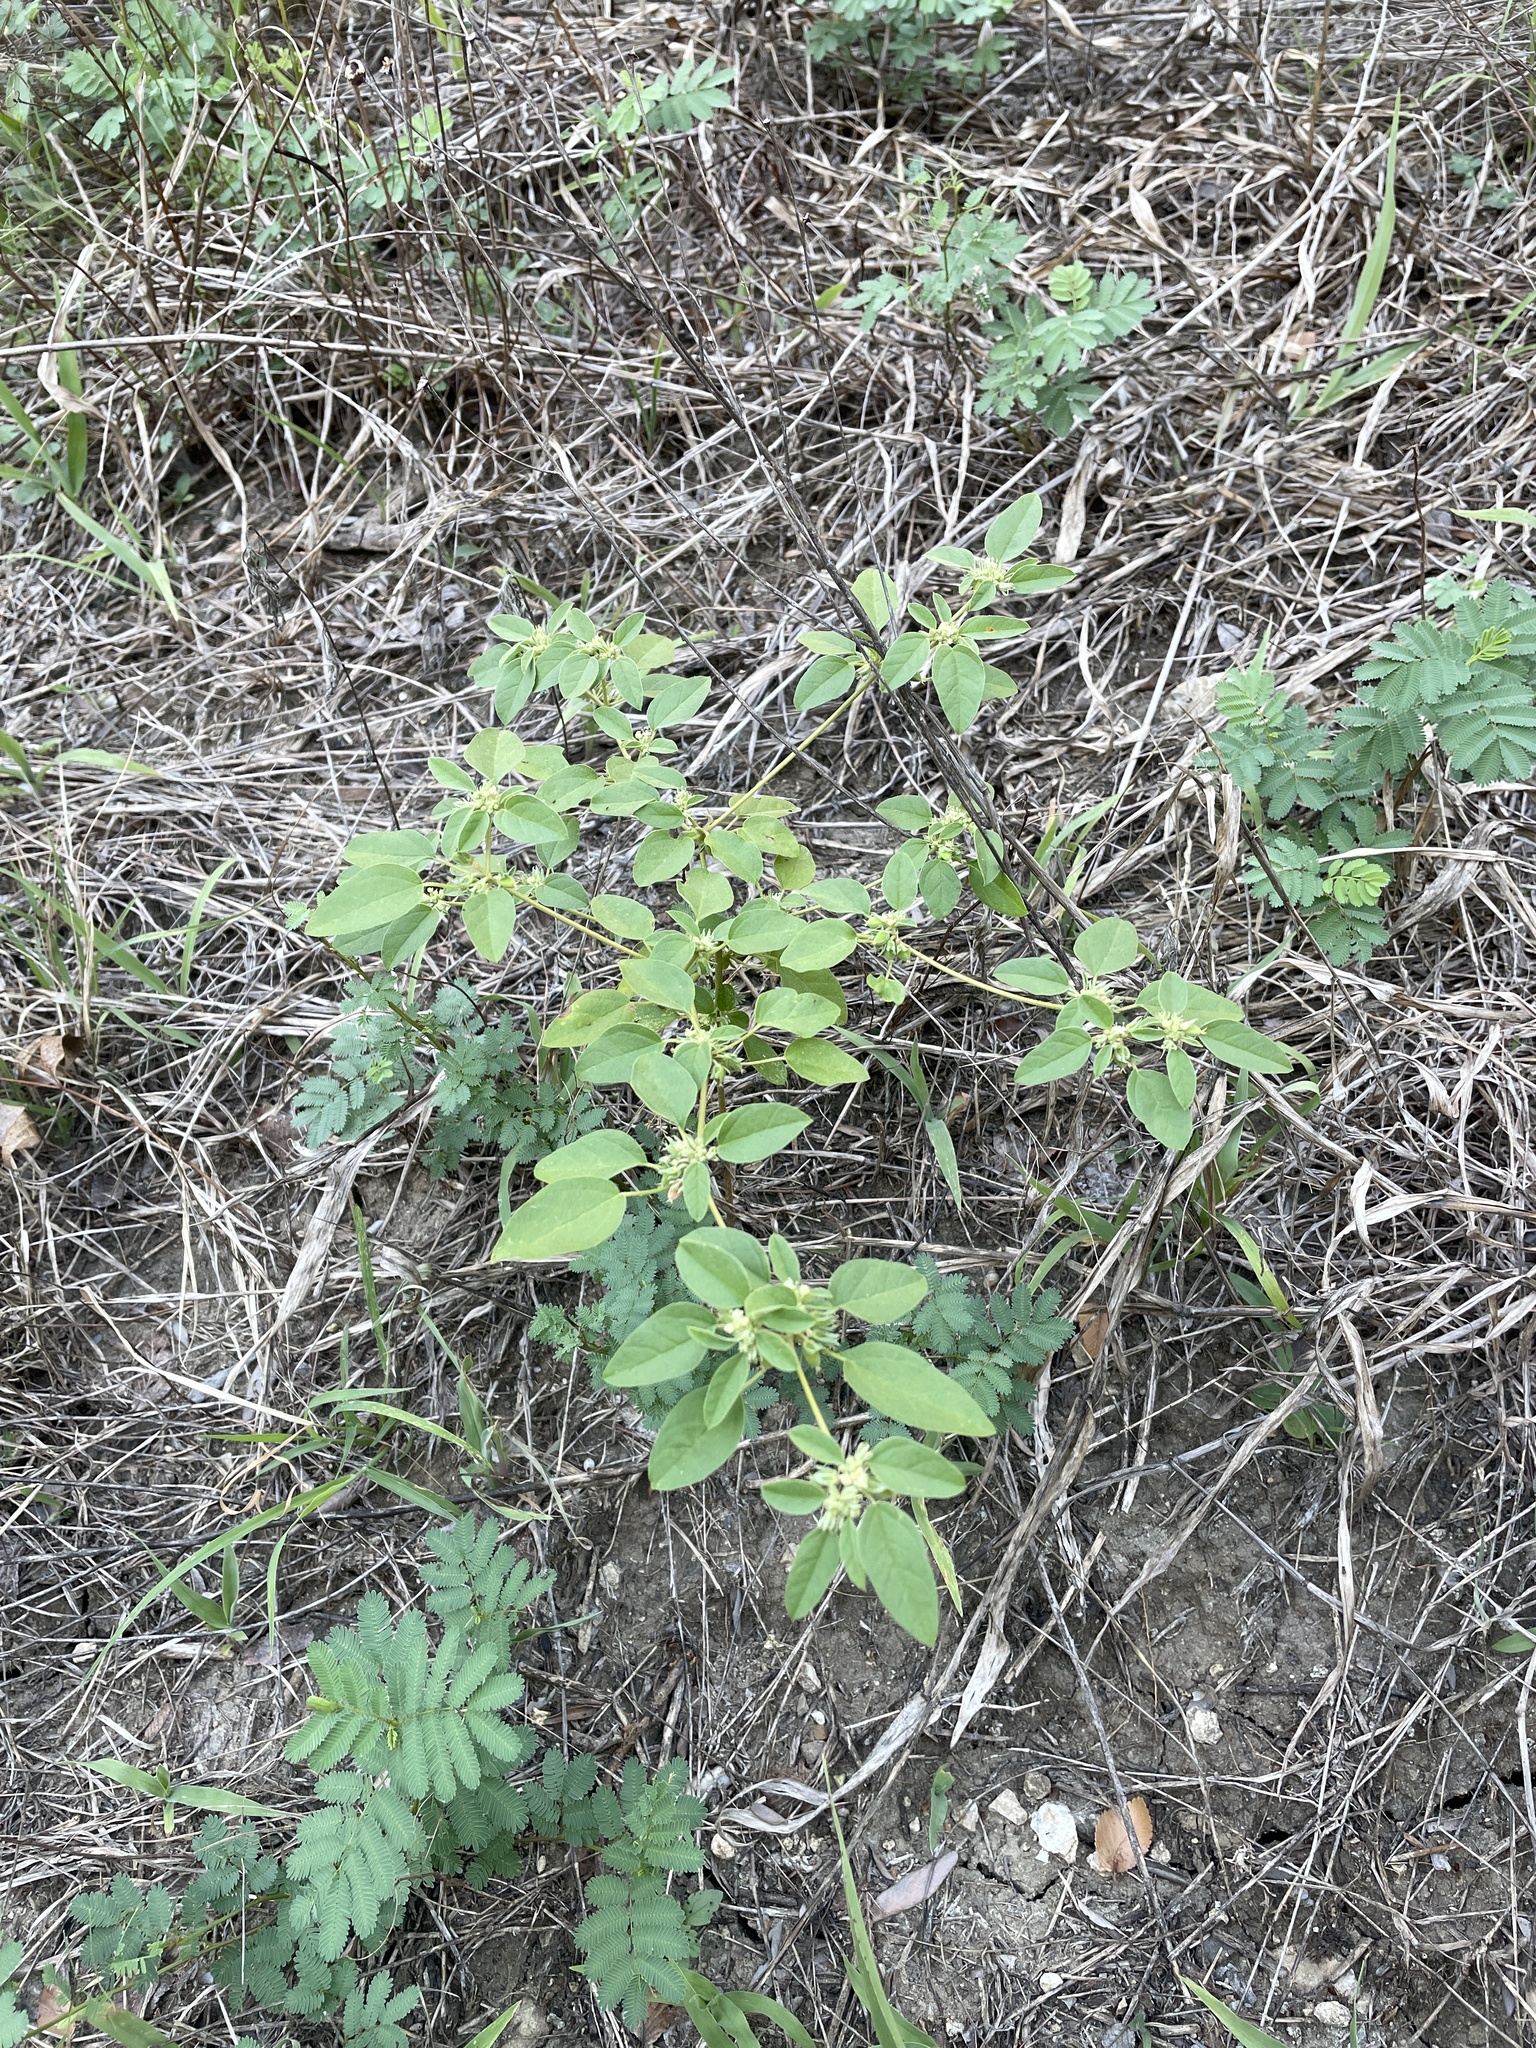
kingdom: Plantae
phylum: Tracheophyta
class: Magnoliopsida
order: Malpighiales
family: Euphorbiaceae
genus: Croton
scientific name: Croton monanthogynus
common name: One-seed croton
